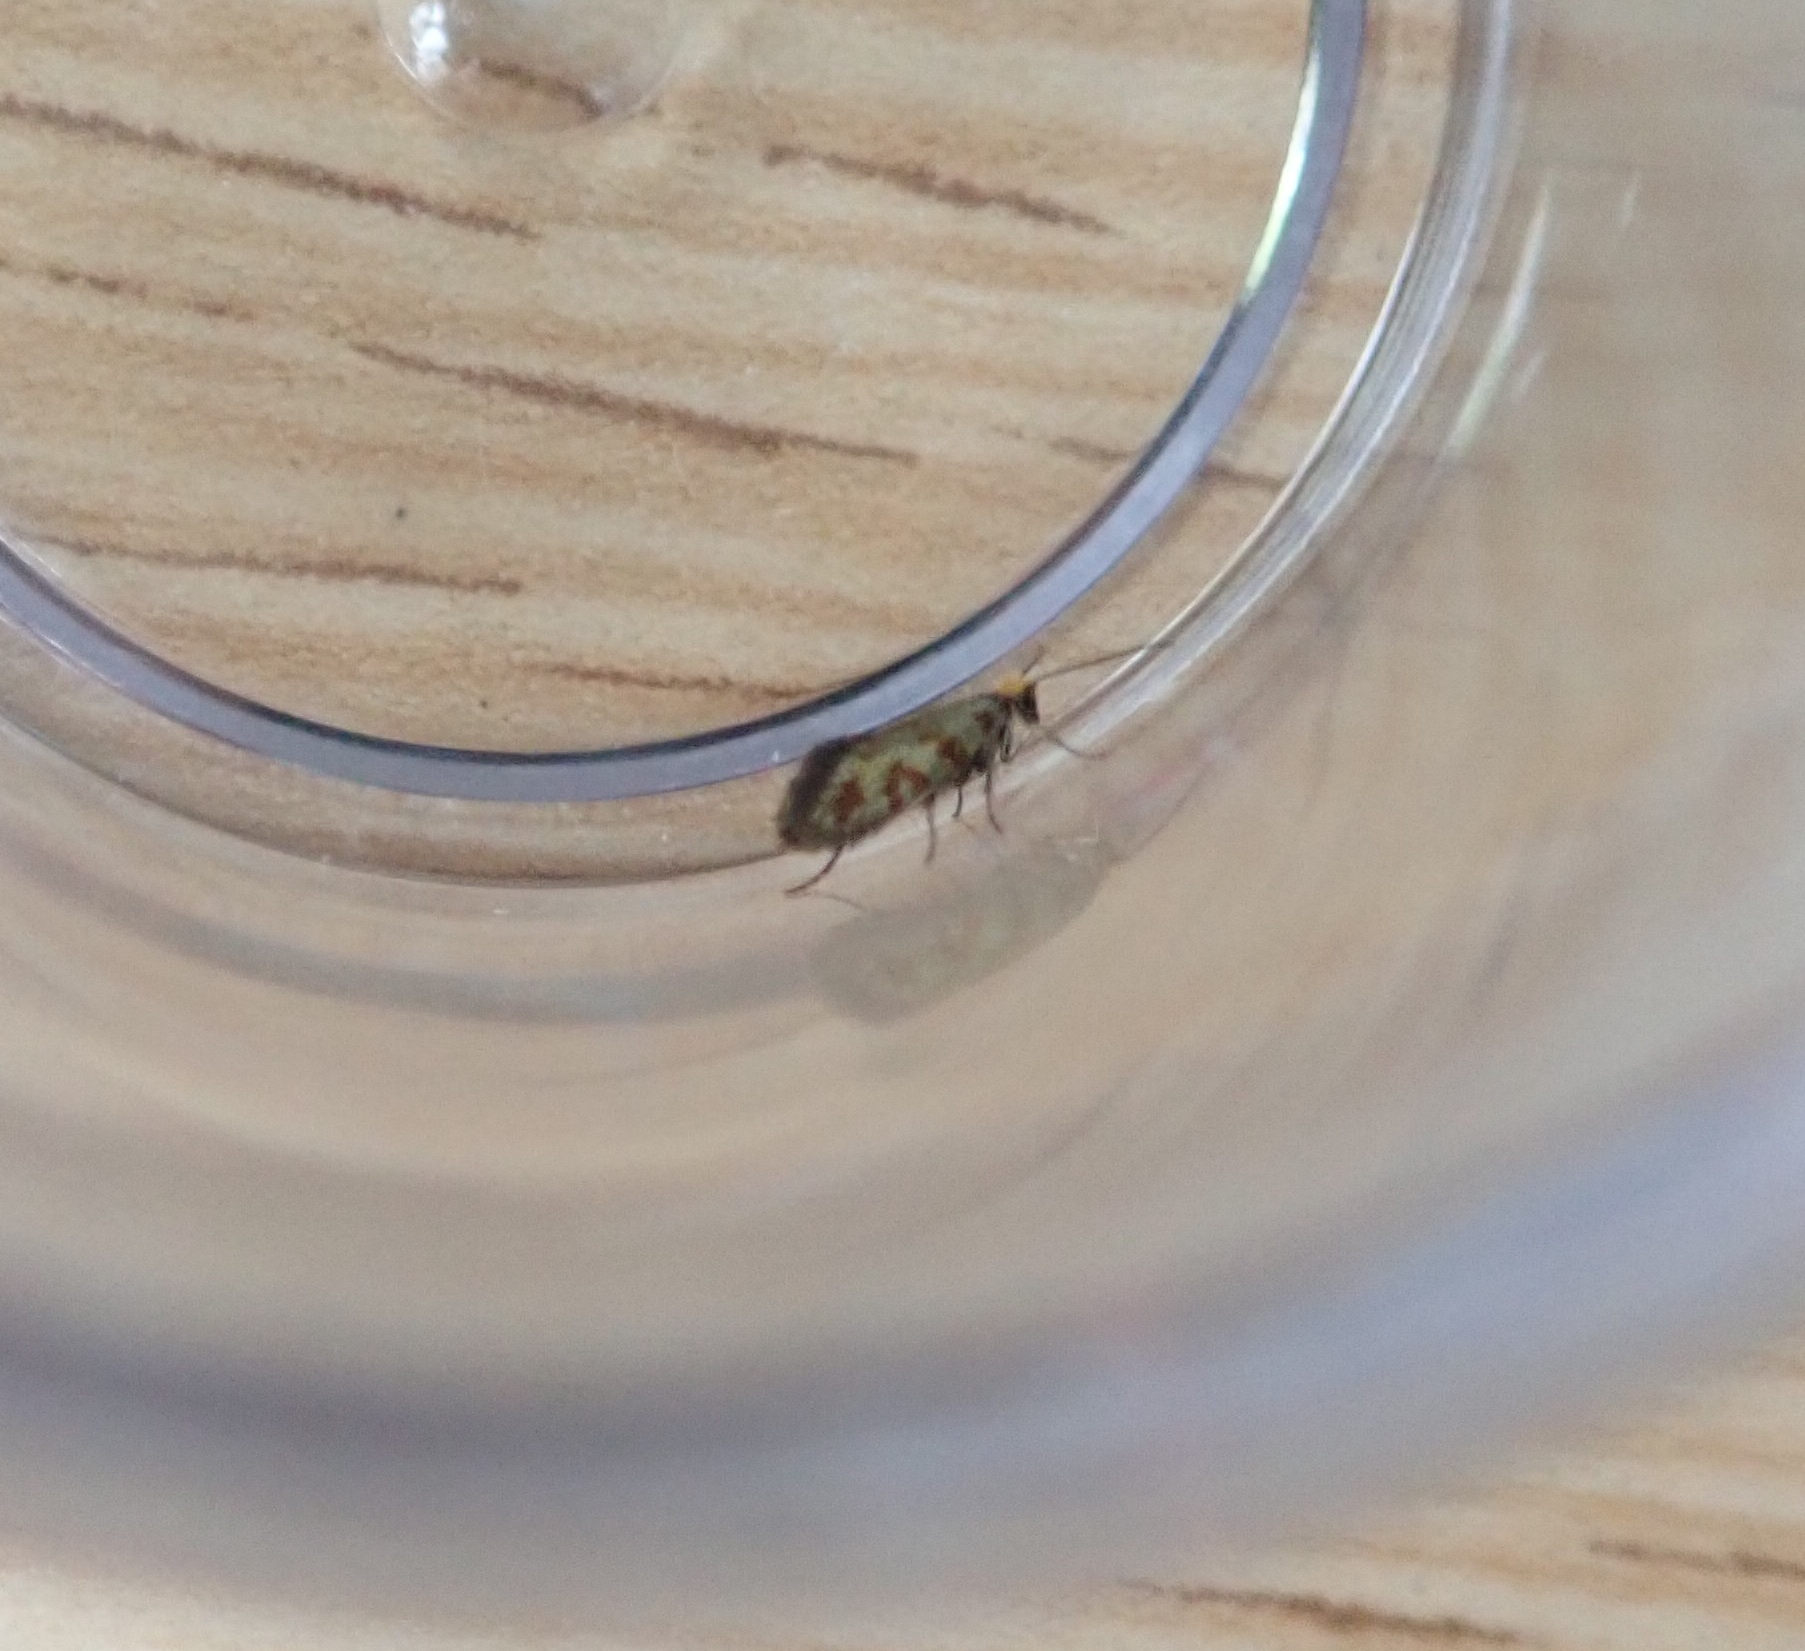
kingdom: Animalia
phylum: Arthropoda
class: Insecta
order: Lepidoptera
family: Micropterigidae
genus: Micropterix
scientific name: Micropterix tunbergella
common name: Red-barred gold
